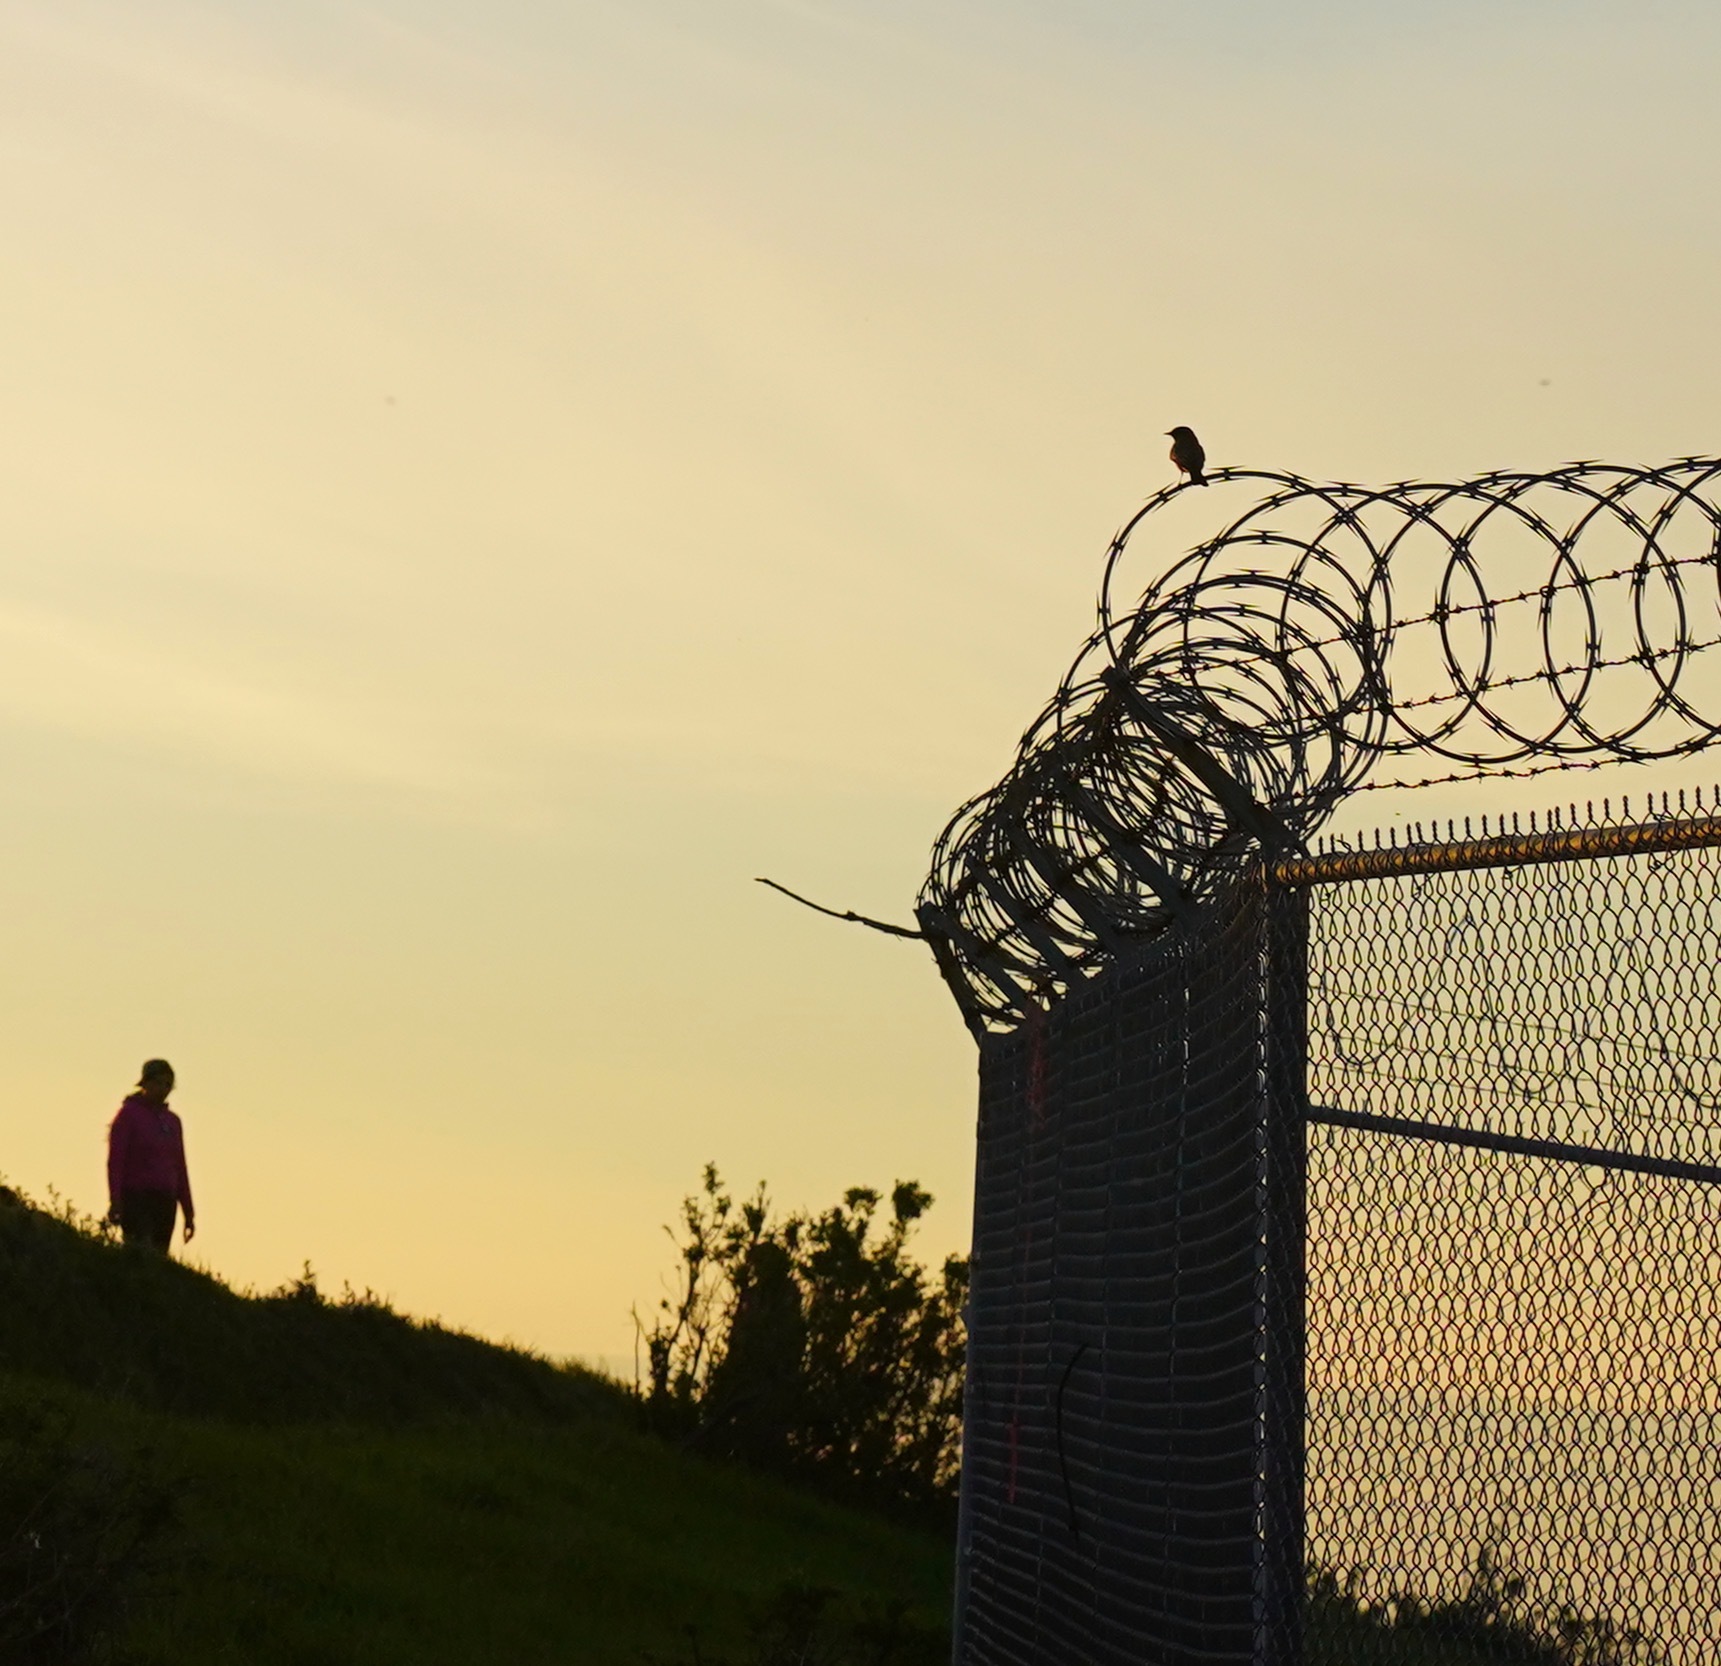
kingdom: Animalia
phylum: Chordata
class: Aves
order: Passeriformes
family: Tyrannidae
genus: Sayornis
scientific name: Sayornis saya
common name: Say's phoebe
